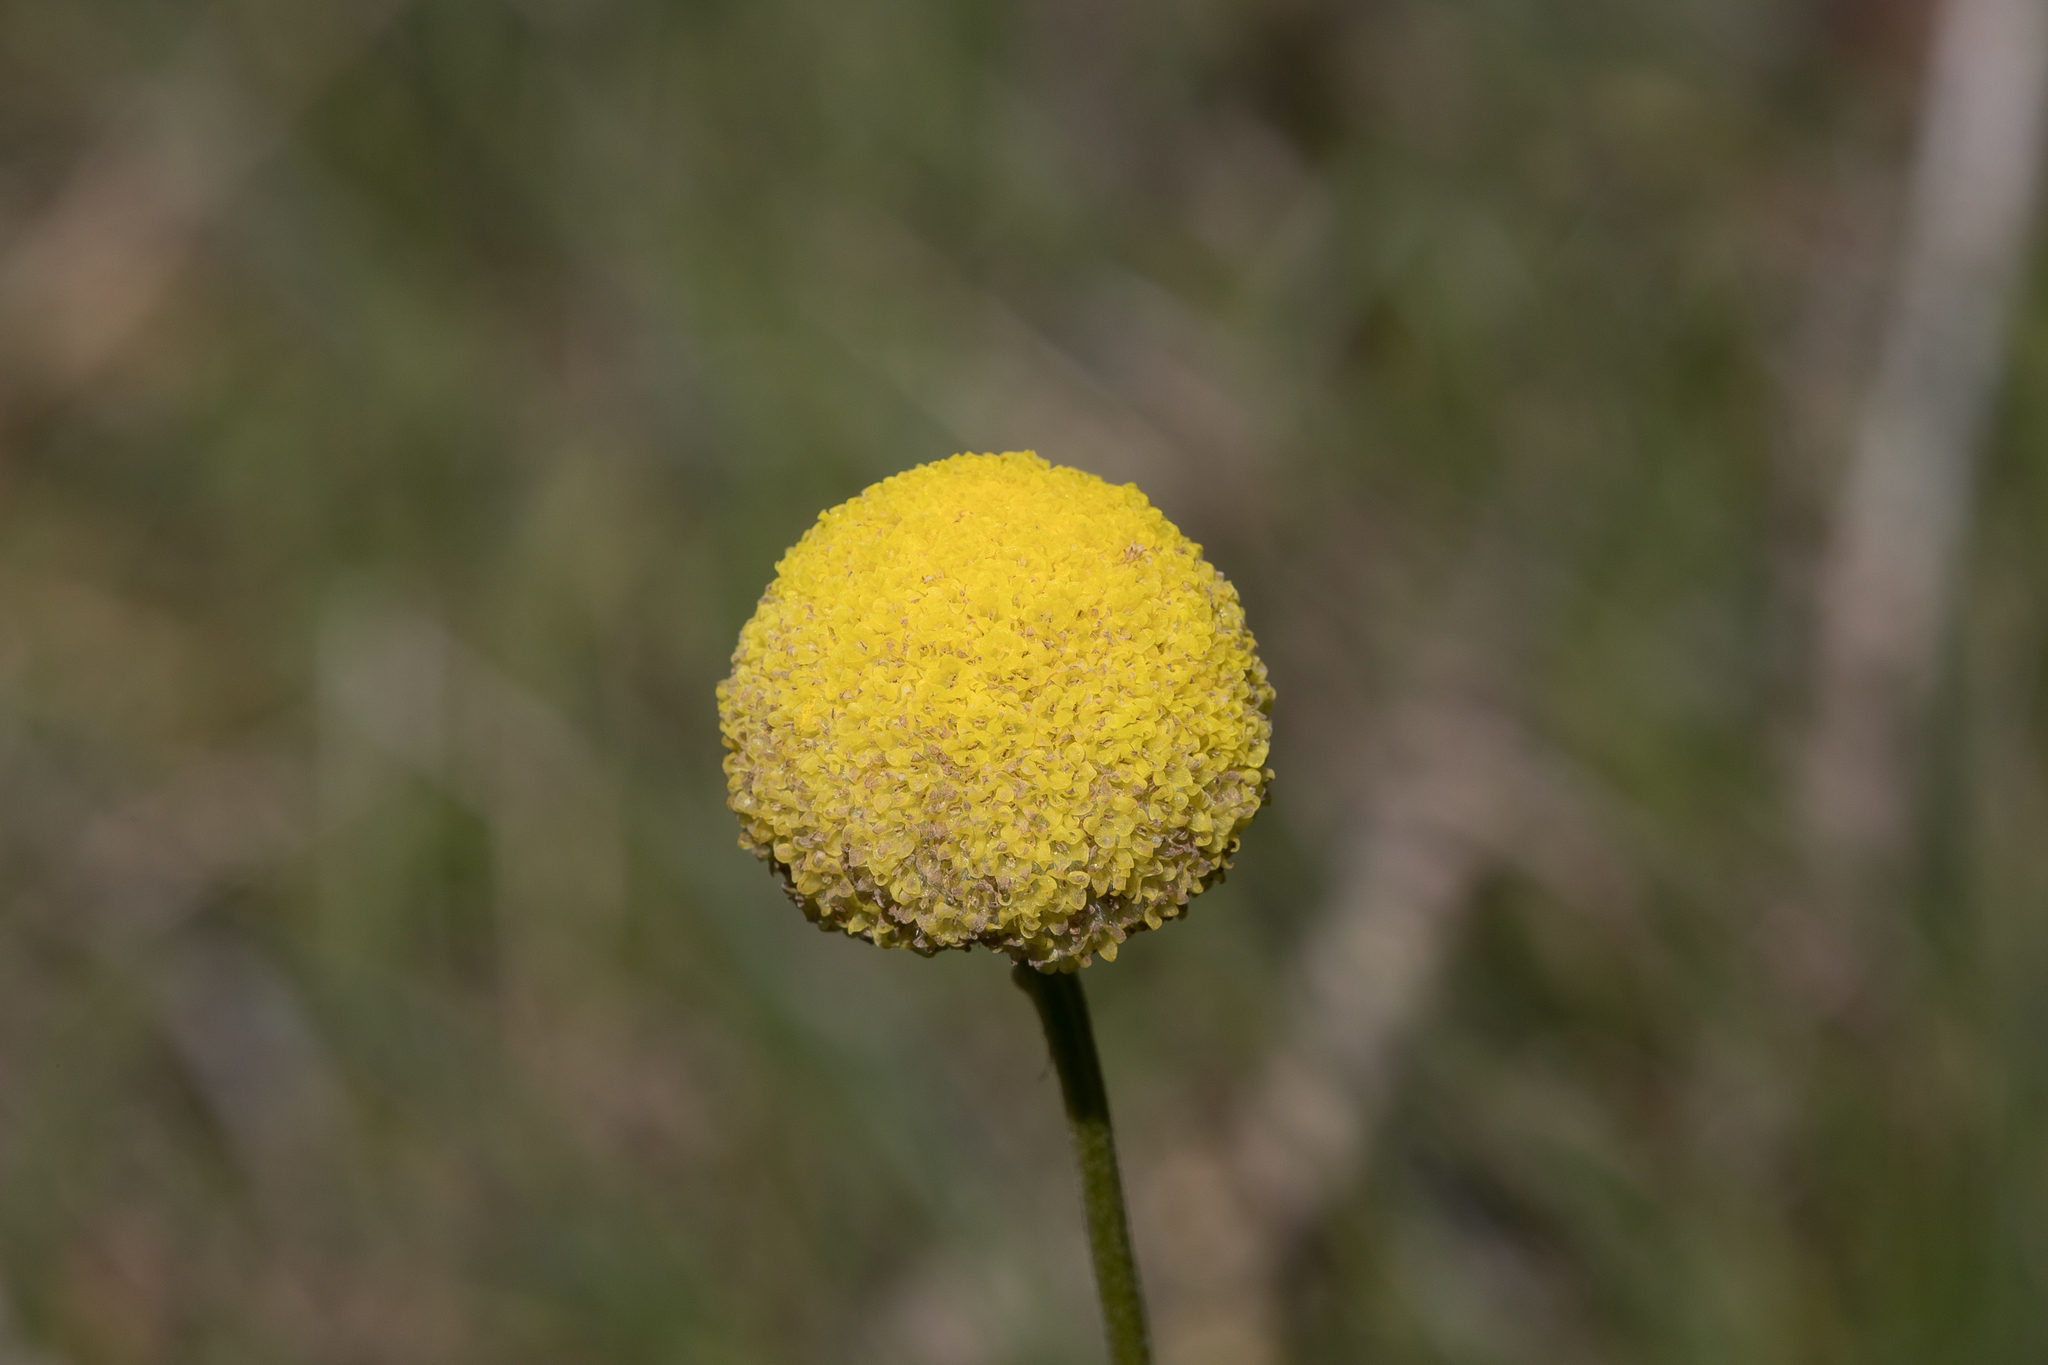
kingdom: Plantae
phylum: Tracheophyta
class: Magnoliopsida
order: Asterales
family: Asteraceae
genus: Craspedia
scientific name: Craspedia variabilis
